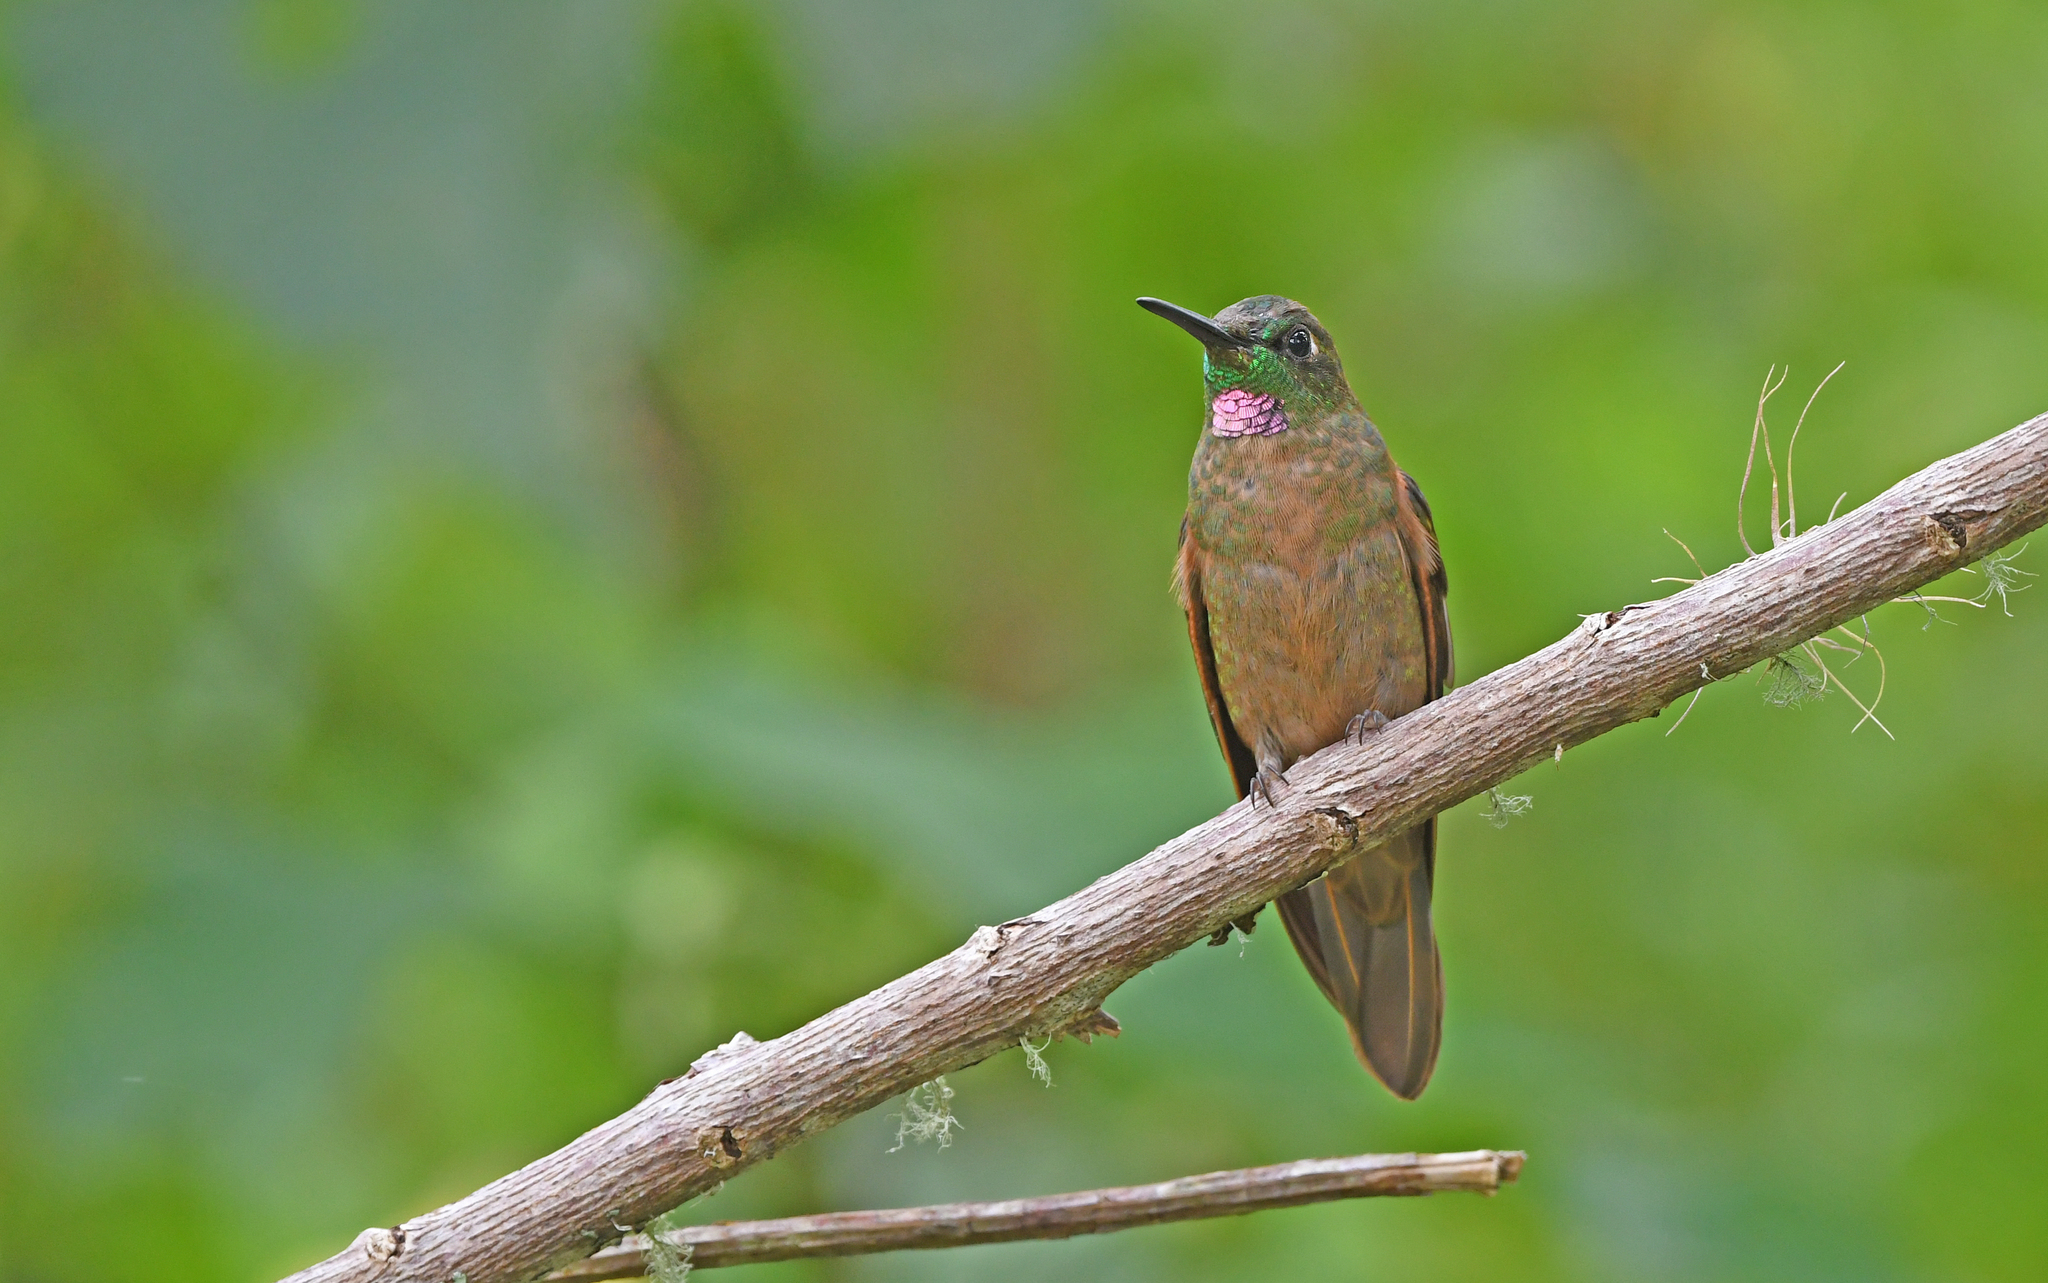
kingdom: Animalia
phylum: Chordata
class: Aves
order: Apodiformes
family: Trochilidae
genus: Heliodoxa
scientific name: Heliodoxa rubinoides
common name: Fawn-breasted brilliant
